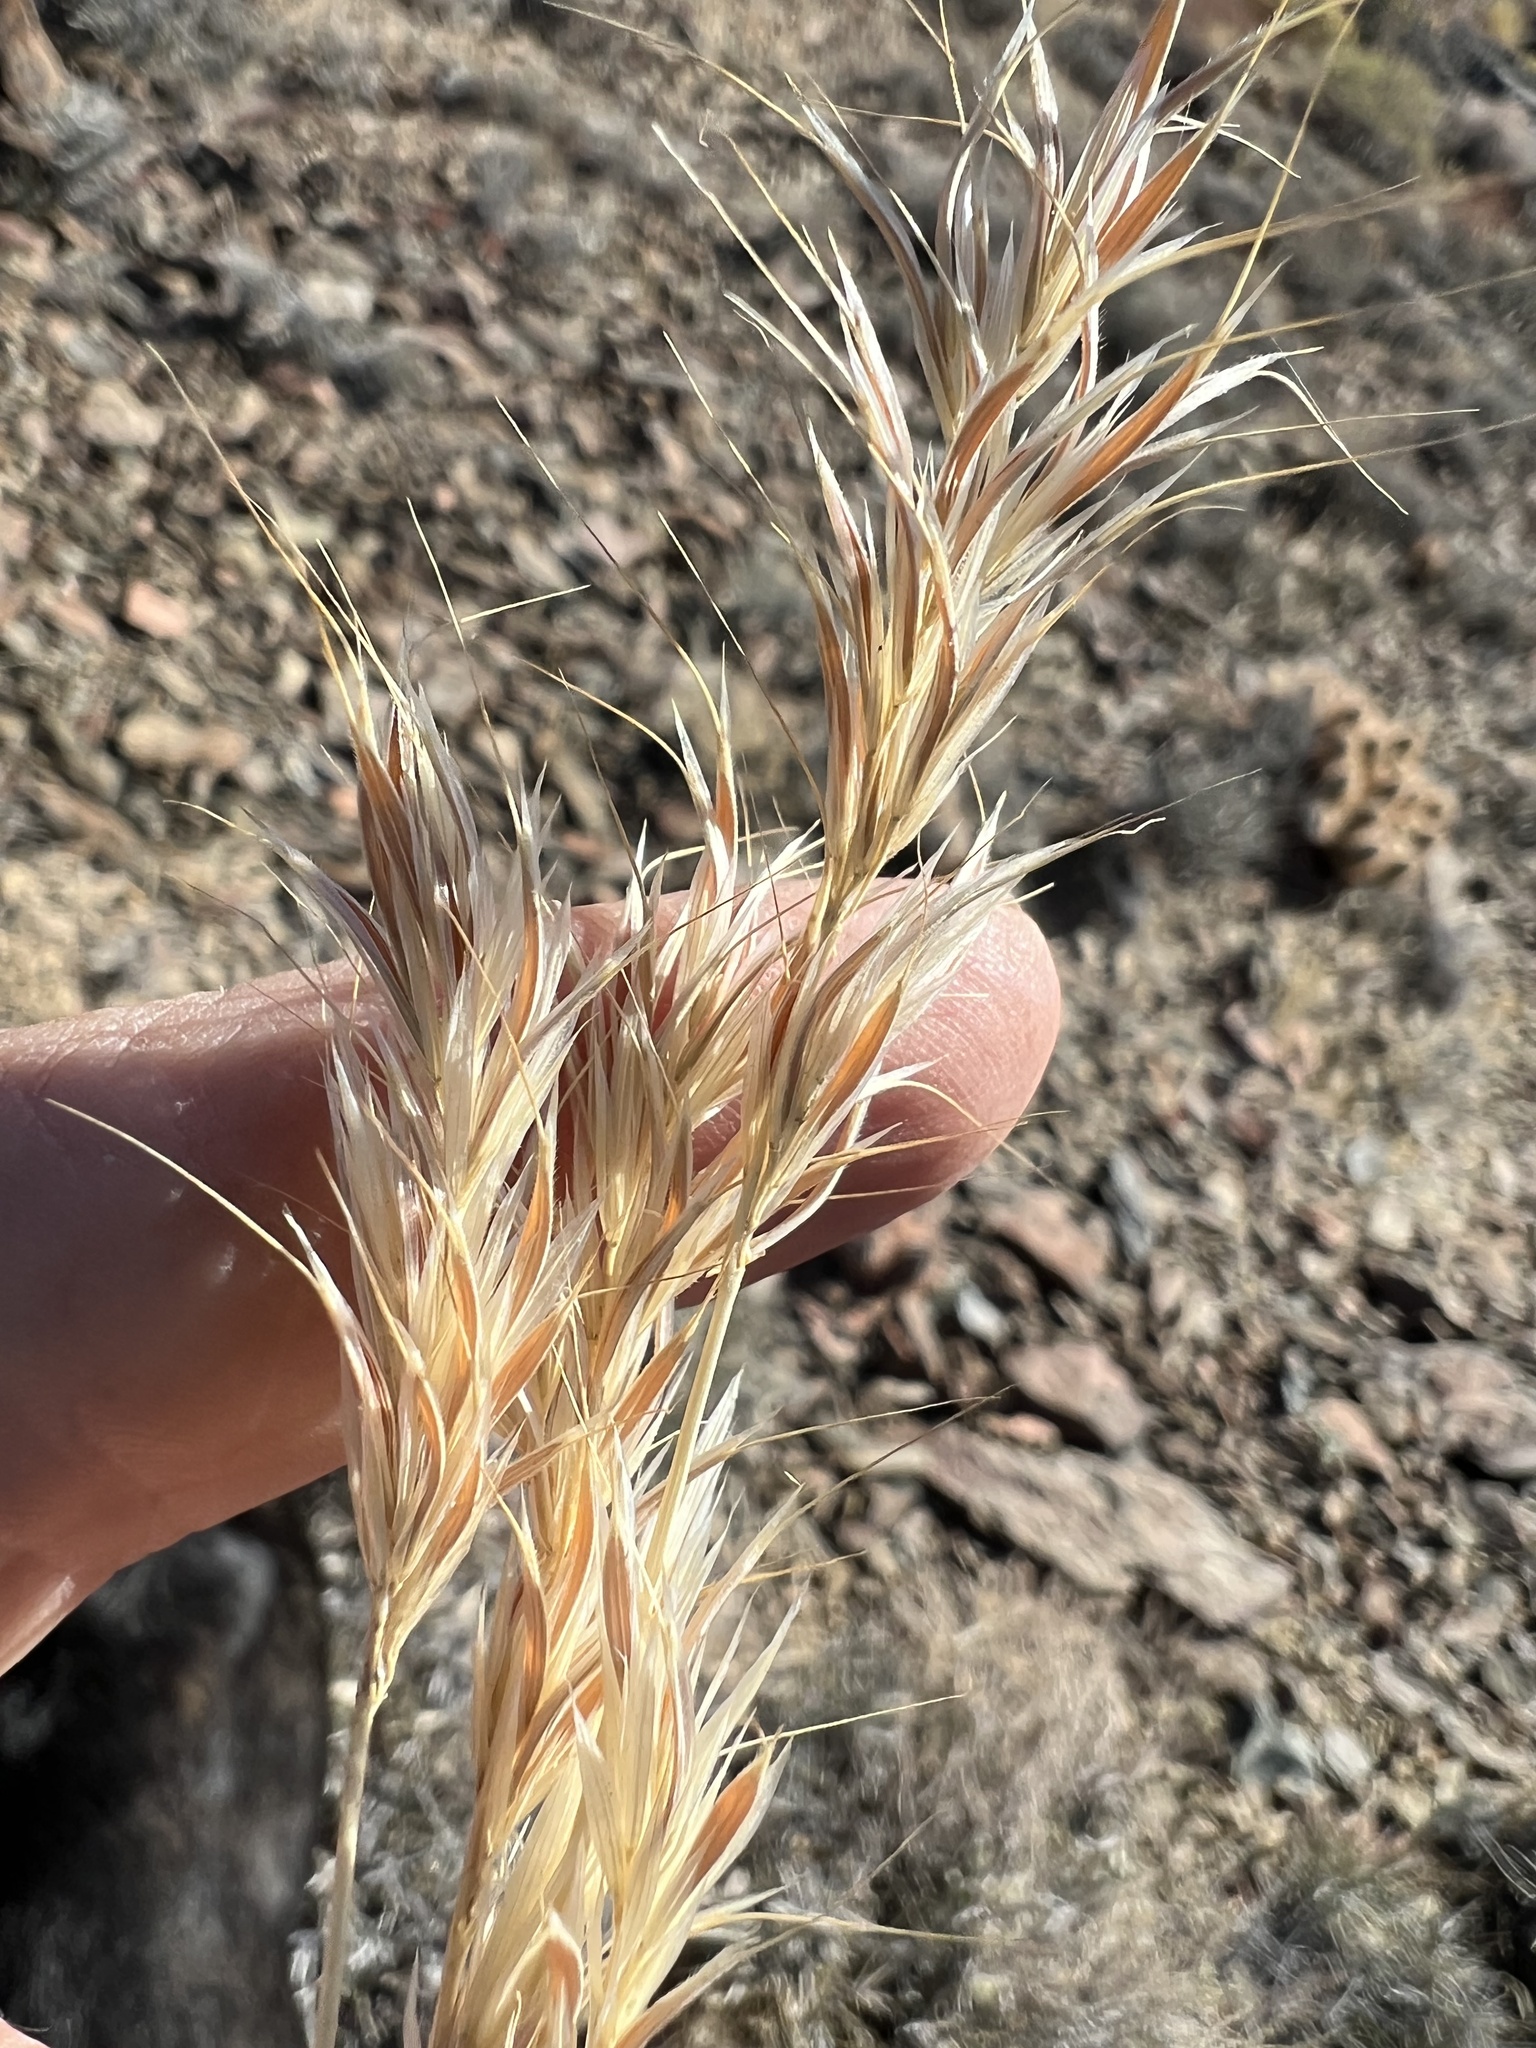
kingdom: Plantae
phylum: Tracheophyta
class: Liliopsida
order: Poales
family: Poaceae
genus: Bromus
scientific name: Bromus rubens
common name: Red brome
